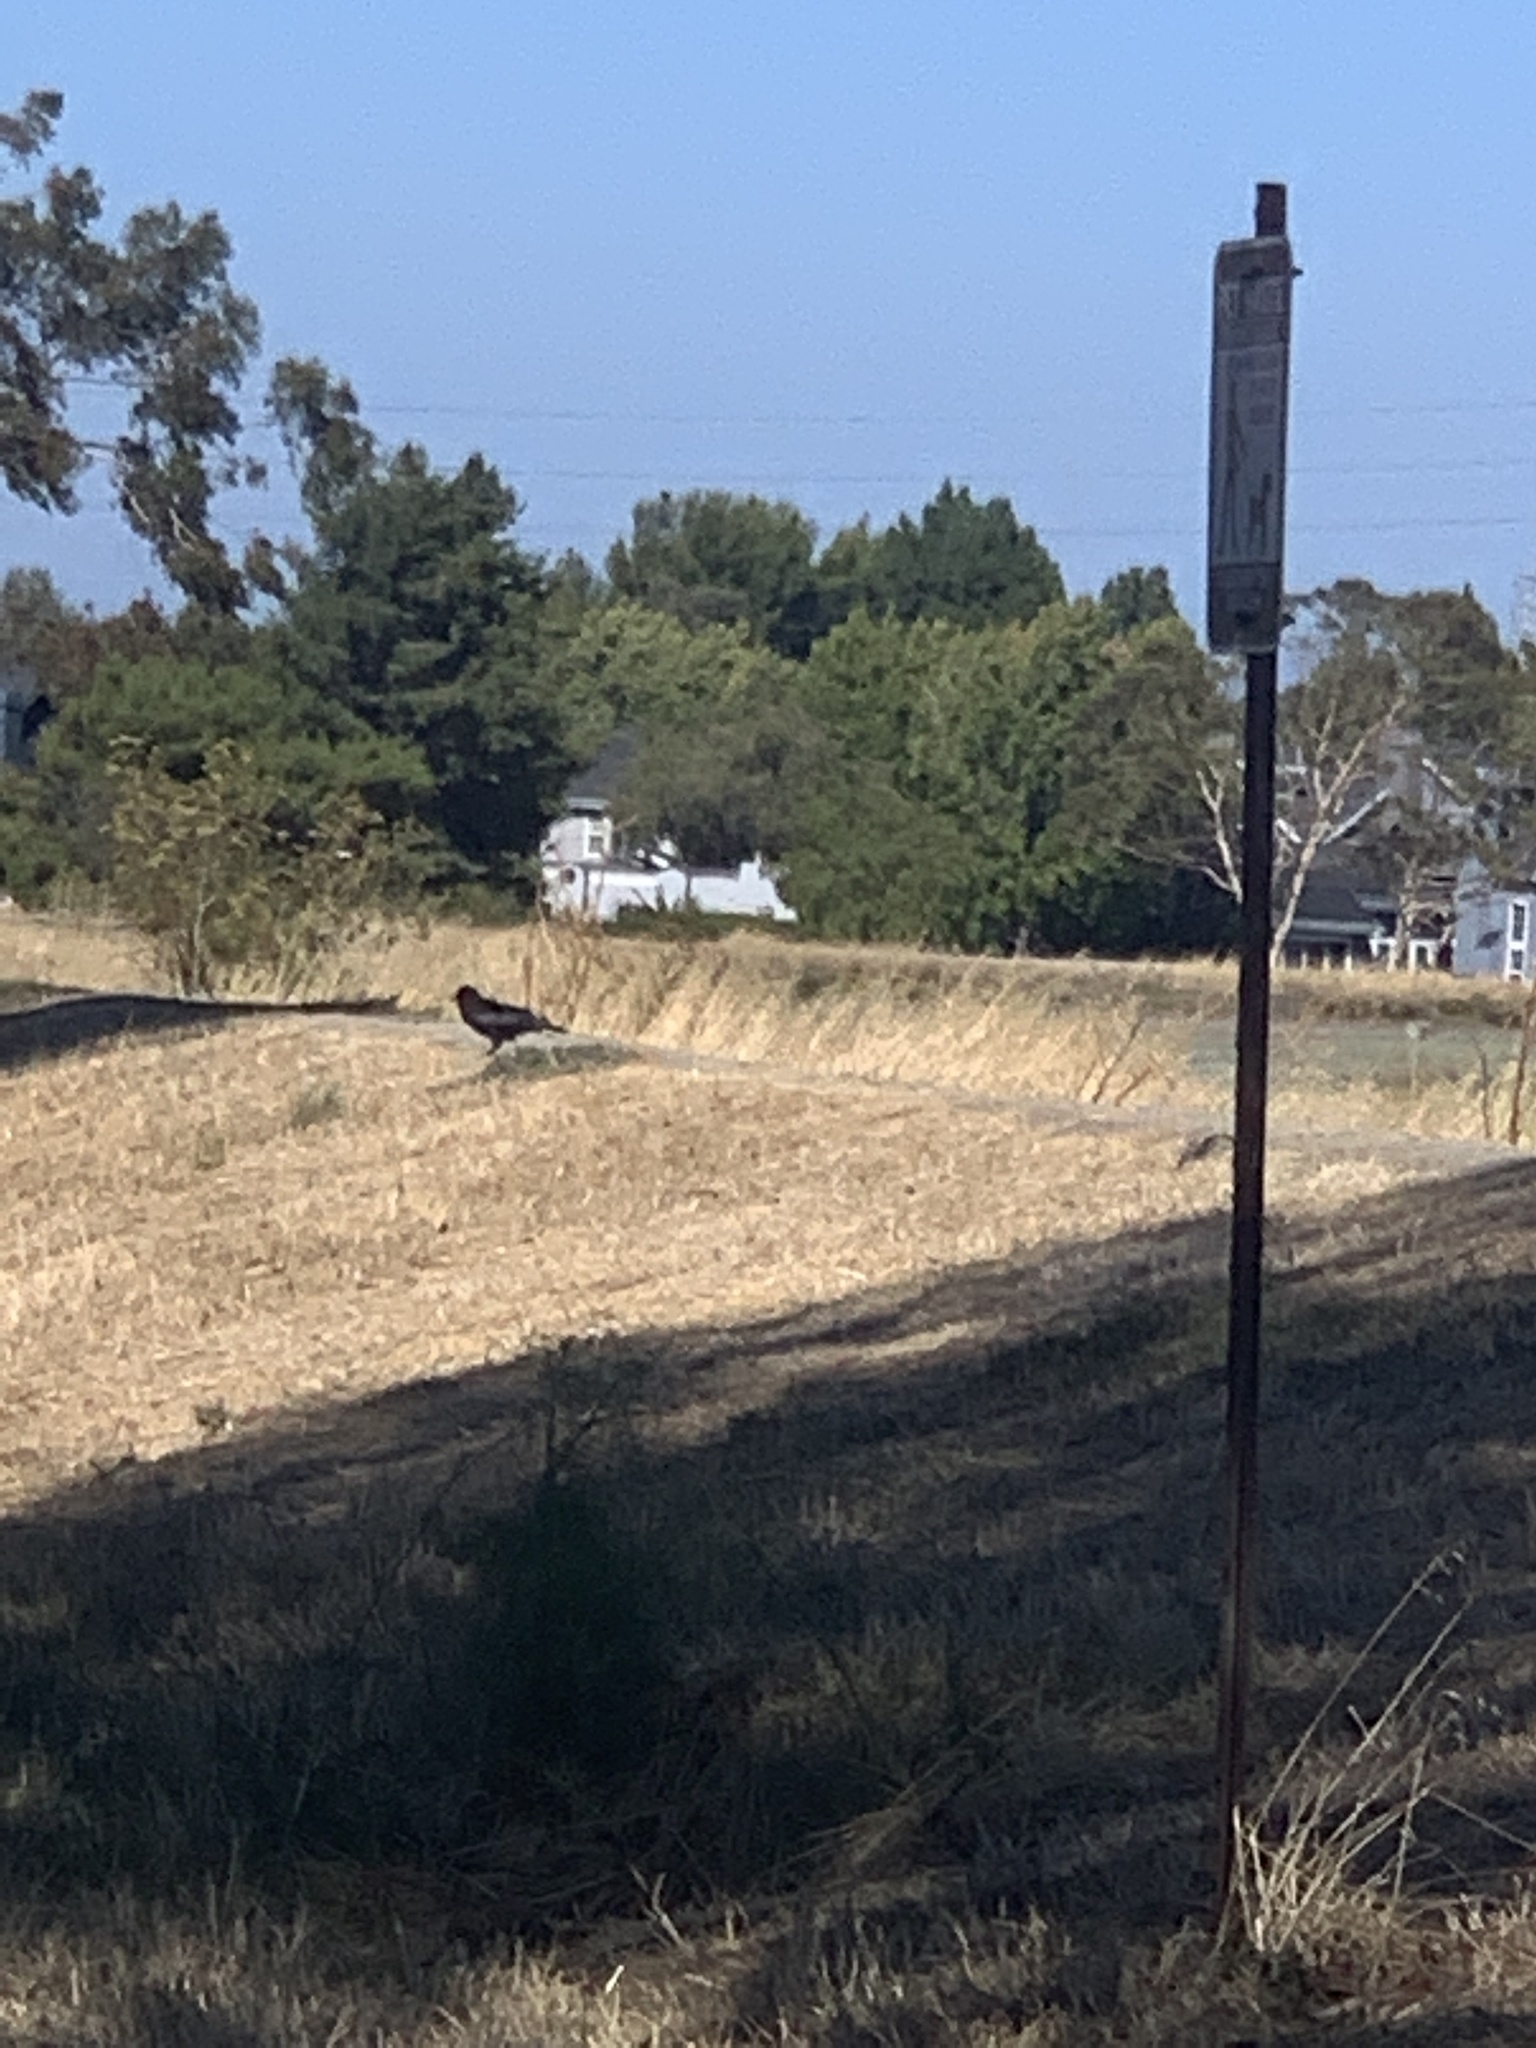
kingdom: Animalia
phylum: Chordata
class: Aves
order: Passeriformes
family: Corvidae
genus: Corvus
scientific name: Corvus brachyrhynchos
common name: American crow
